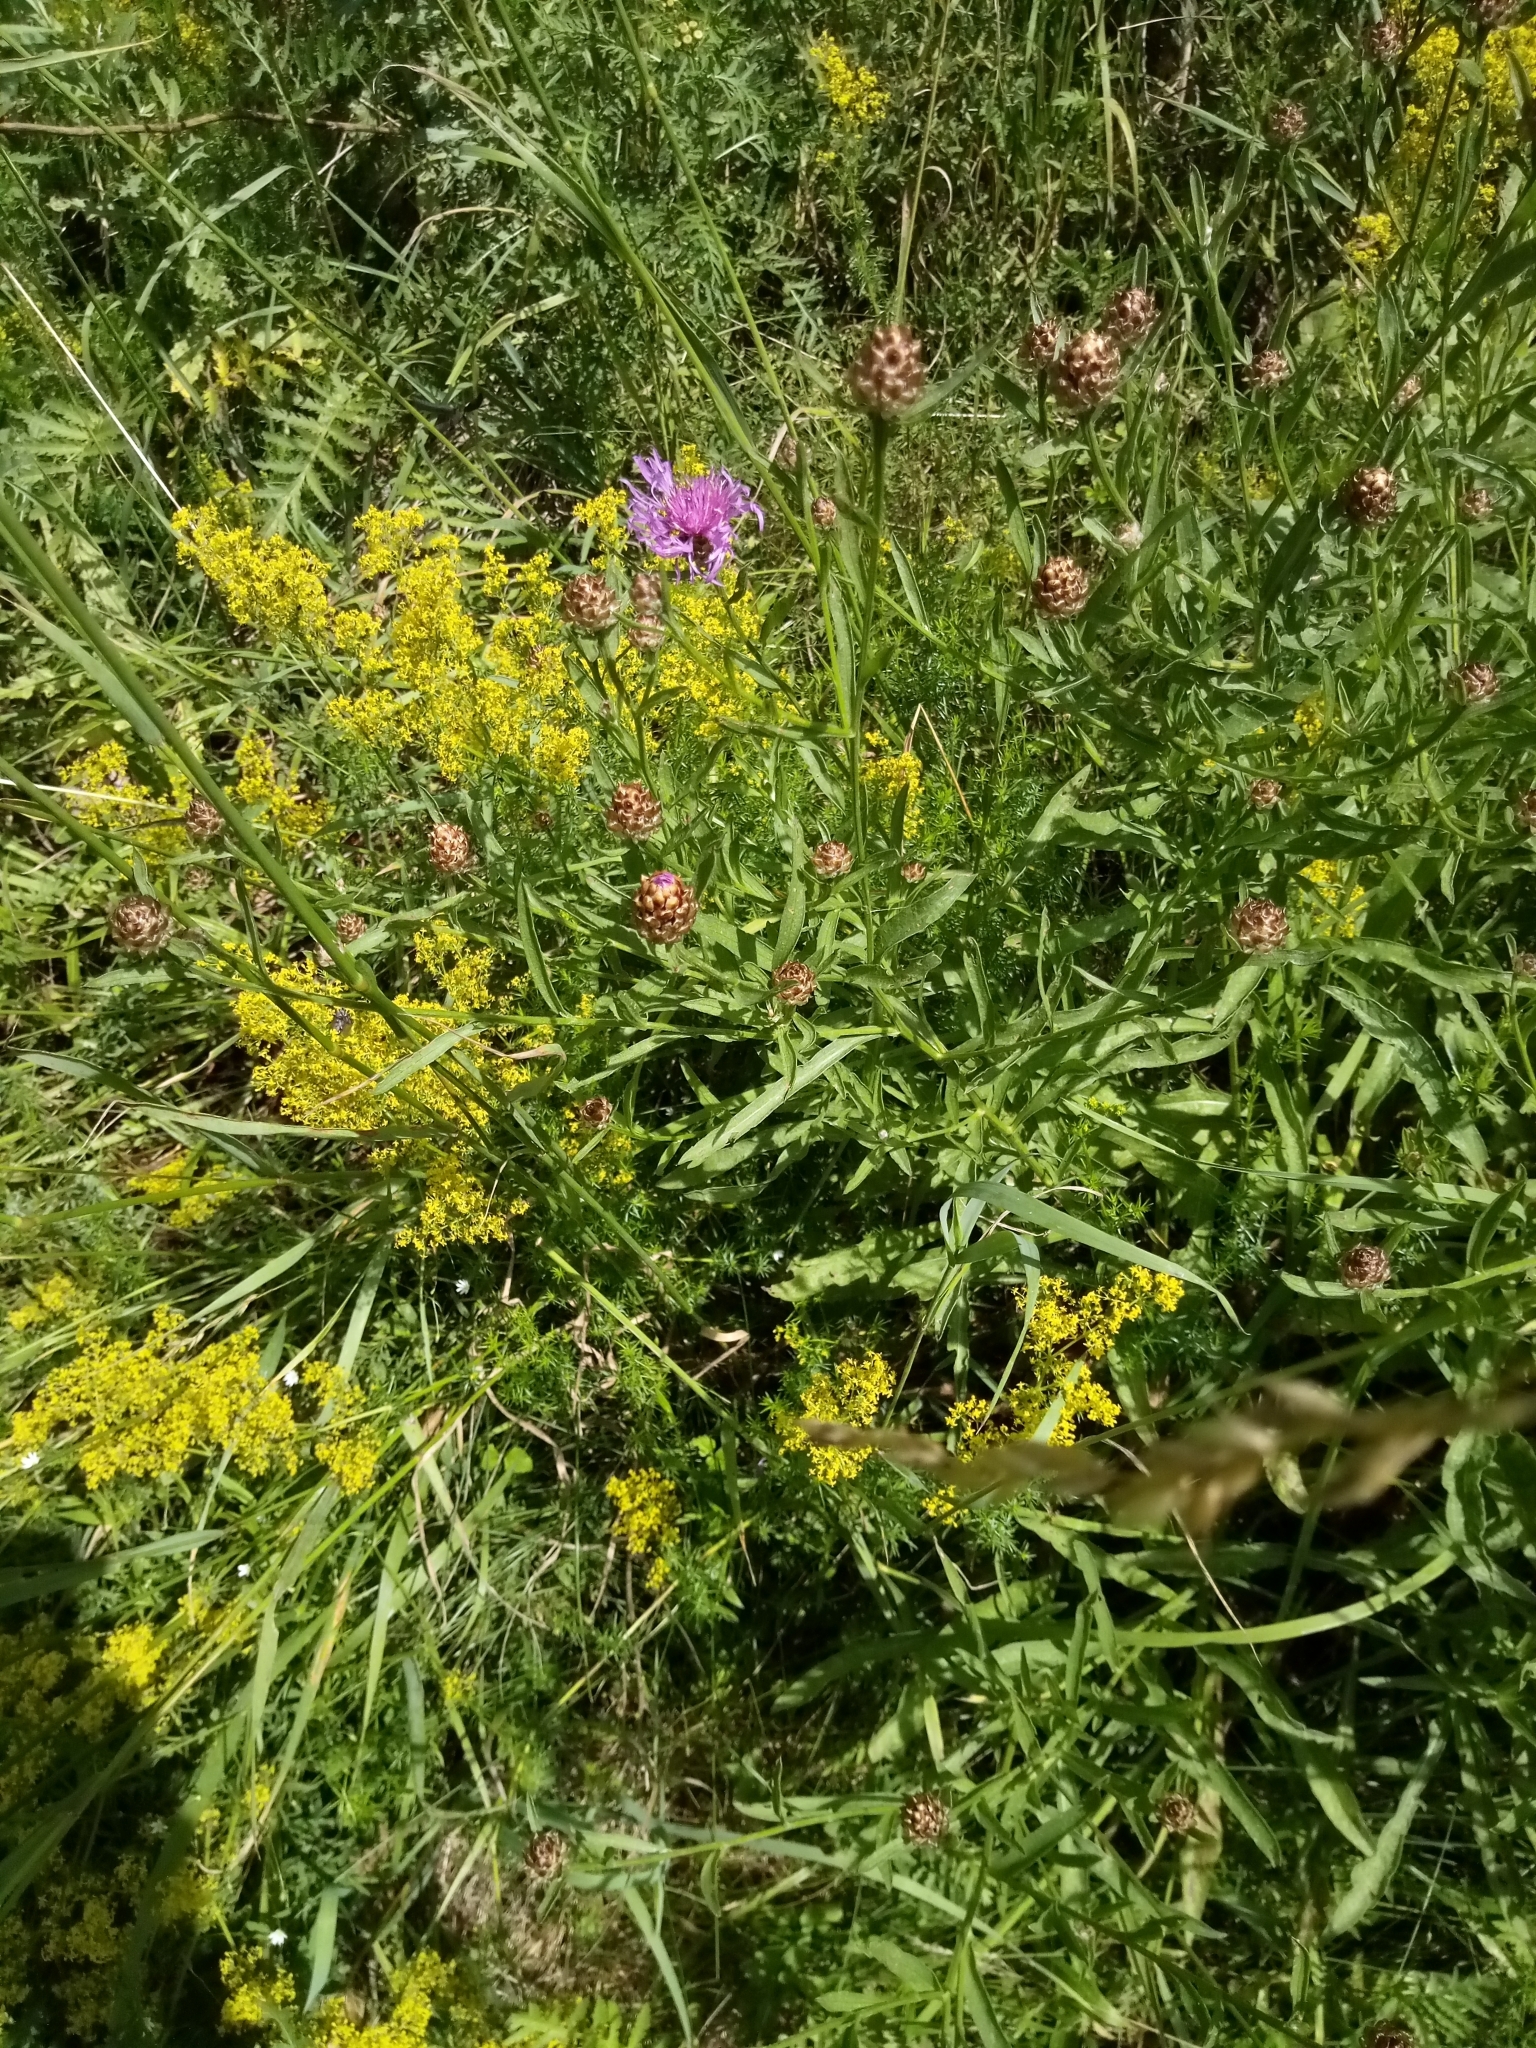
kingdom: Plantae
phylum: Tracheophyta
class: Magnoliopsida
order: Asterales
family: Asteraceae
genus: Centaurea
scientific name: Centaurea jacea
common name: Brown knapweed
